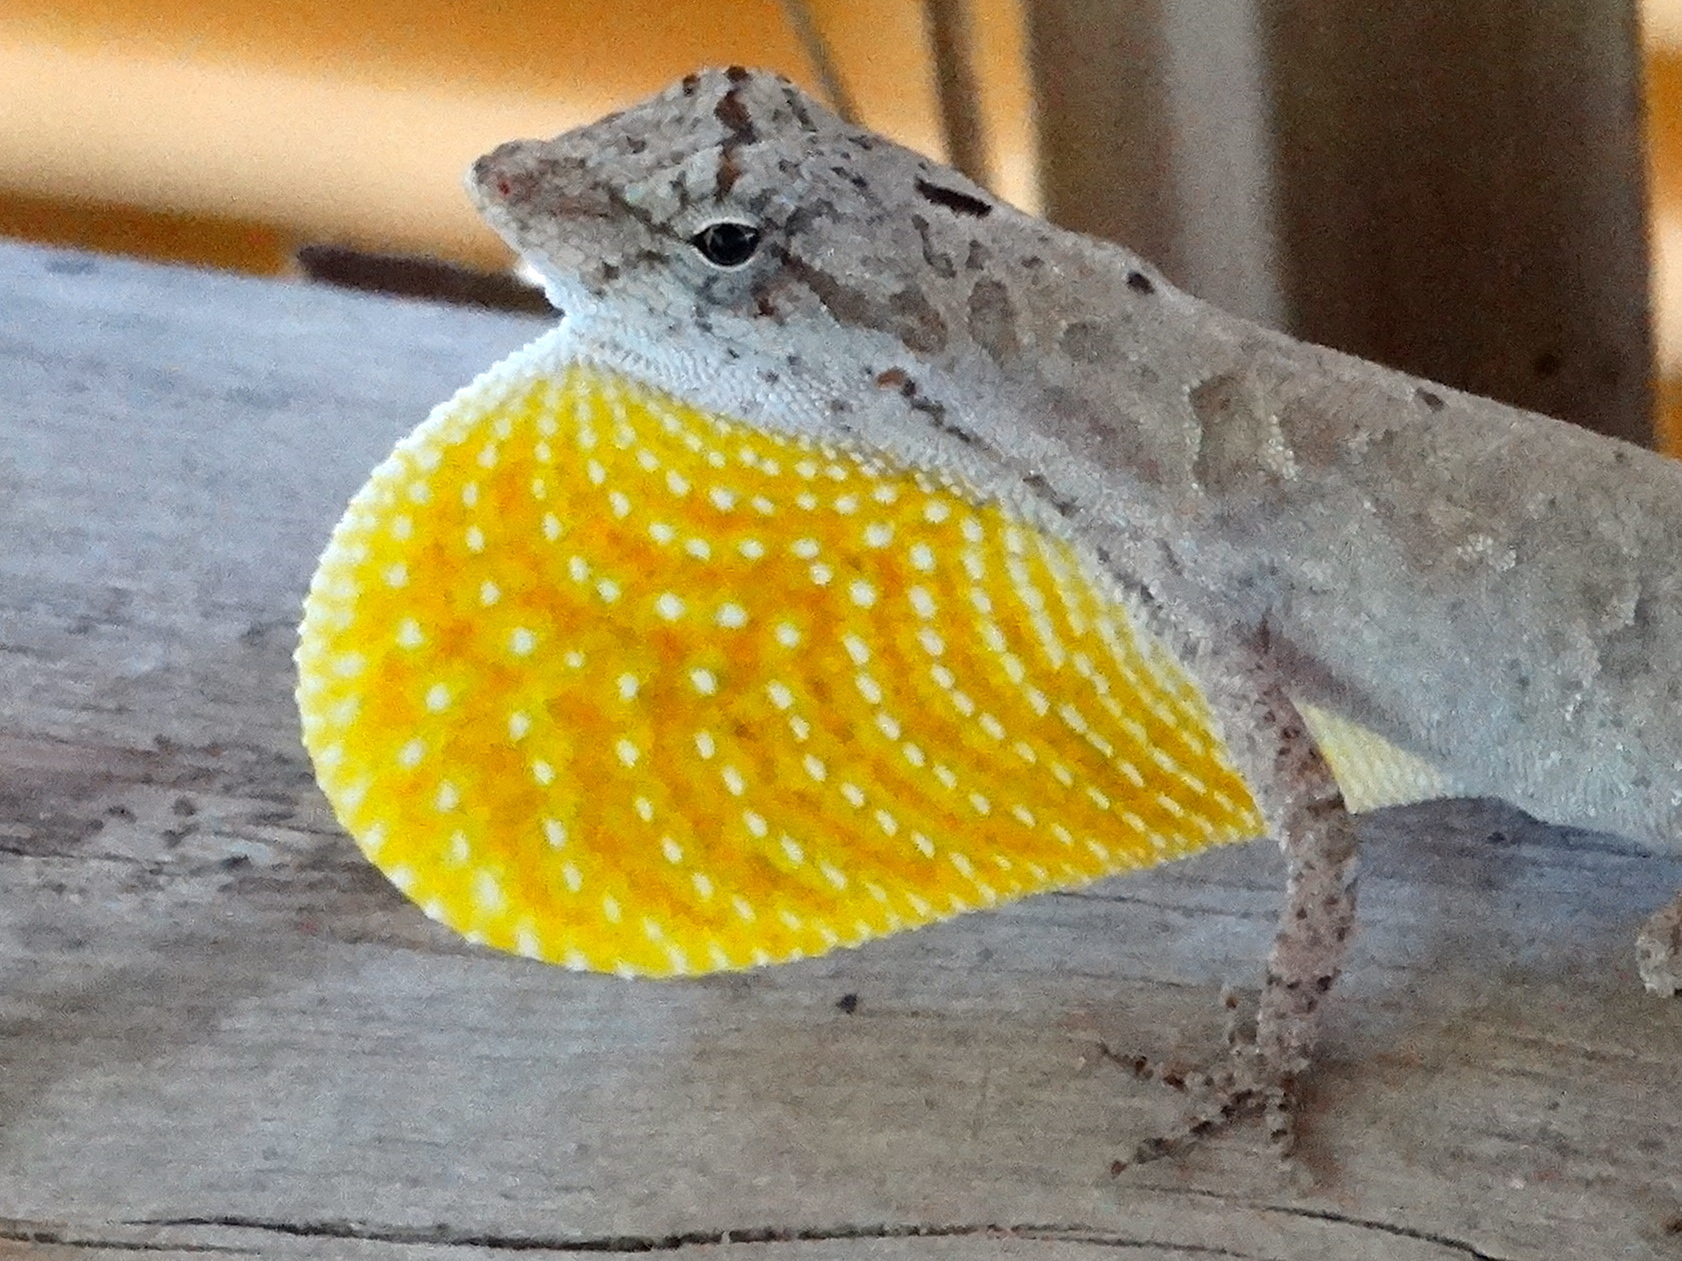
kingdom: Animalia
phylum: Chordata
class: Squamata
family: Dactyloidae
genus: Anolis
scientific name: Anolis nebulosus
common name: Clouded anole
